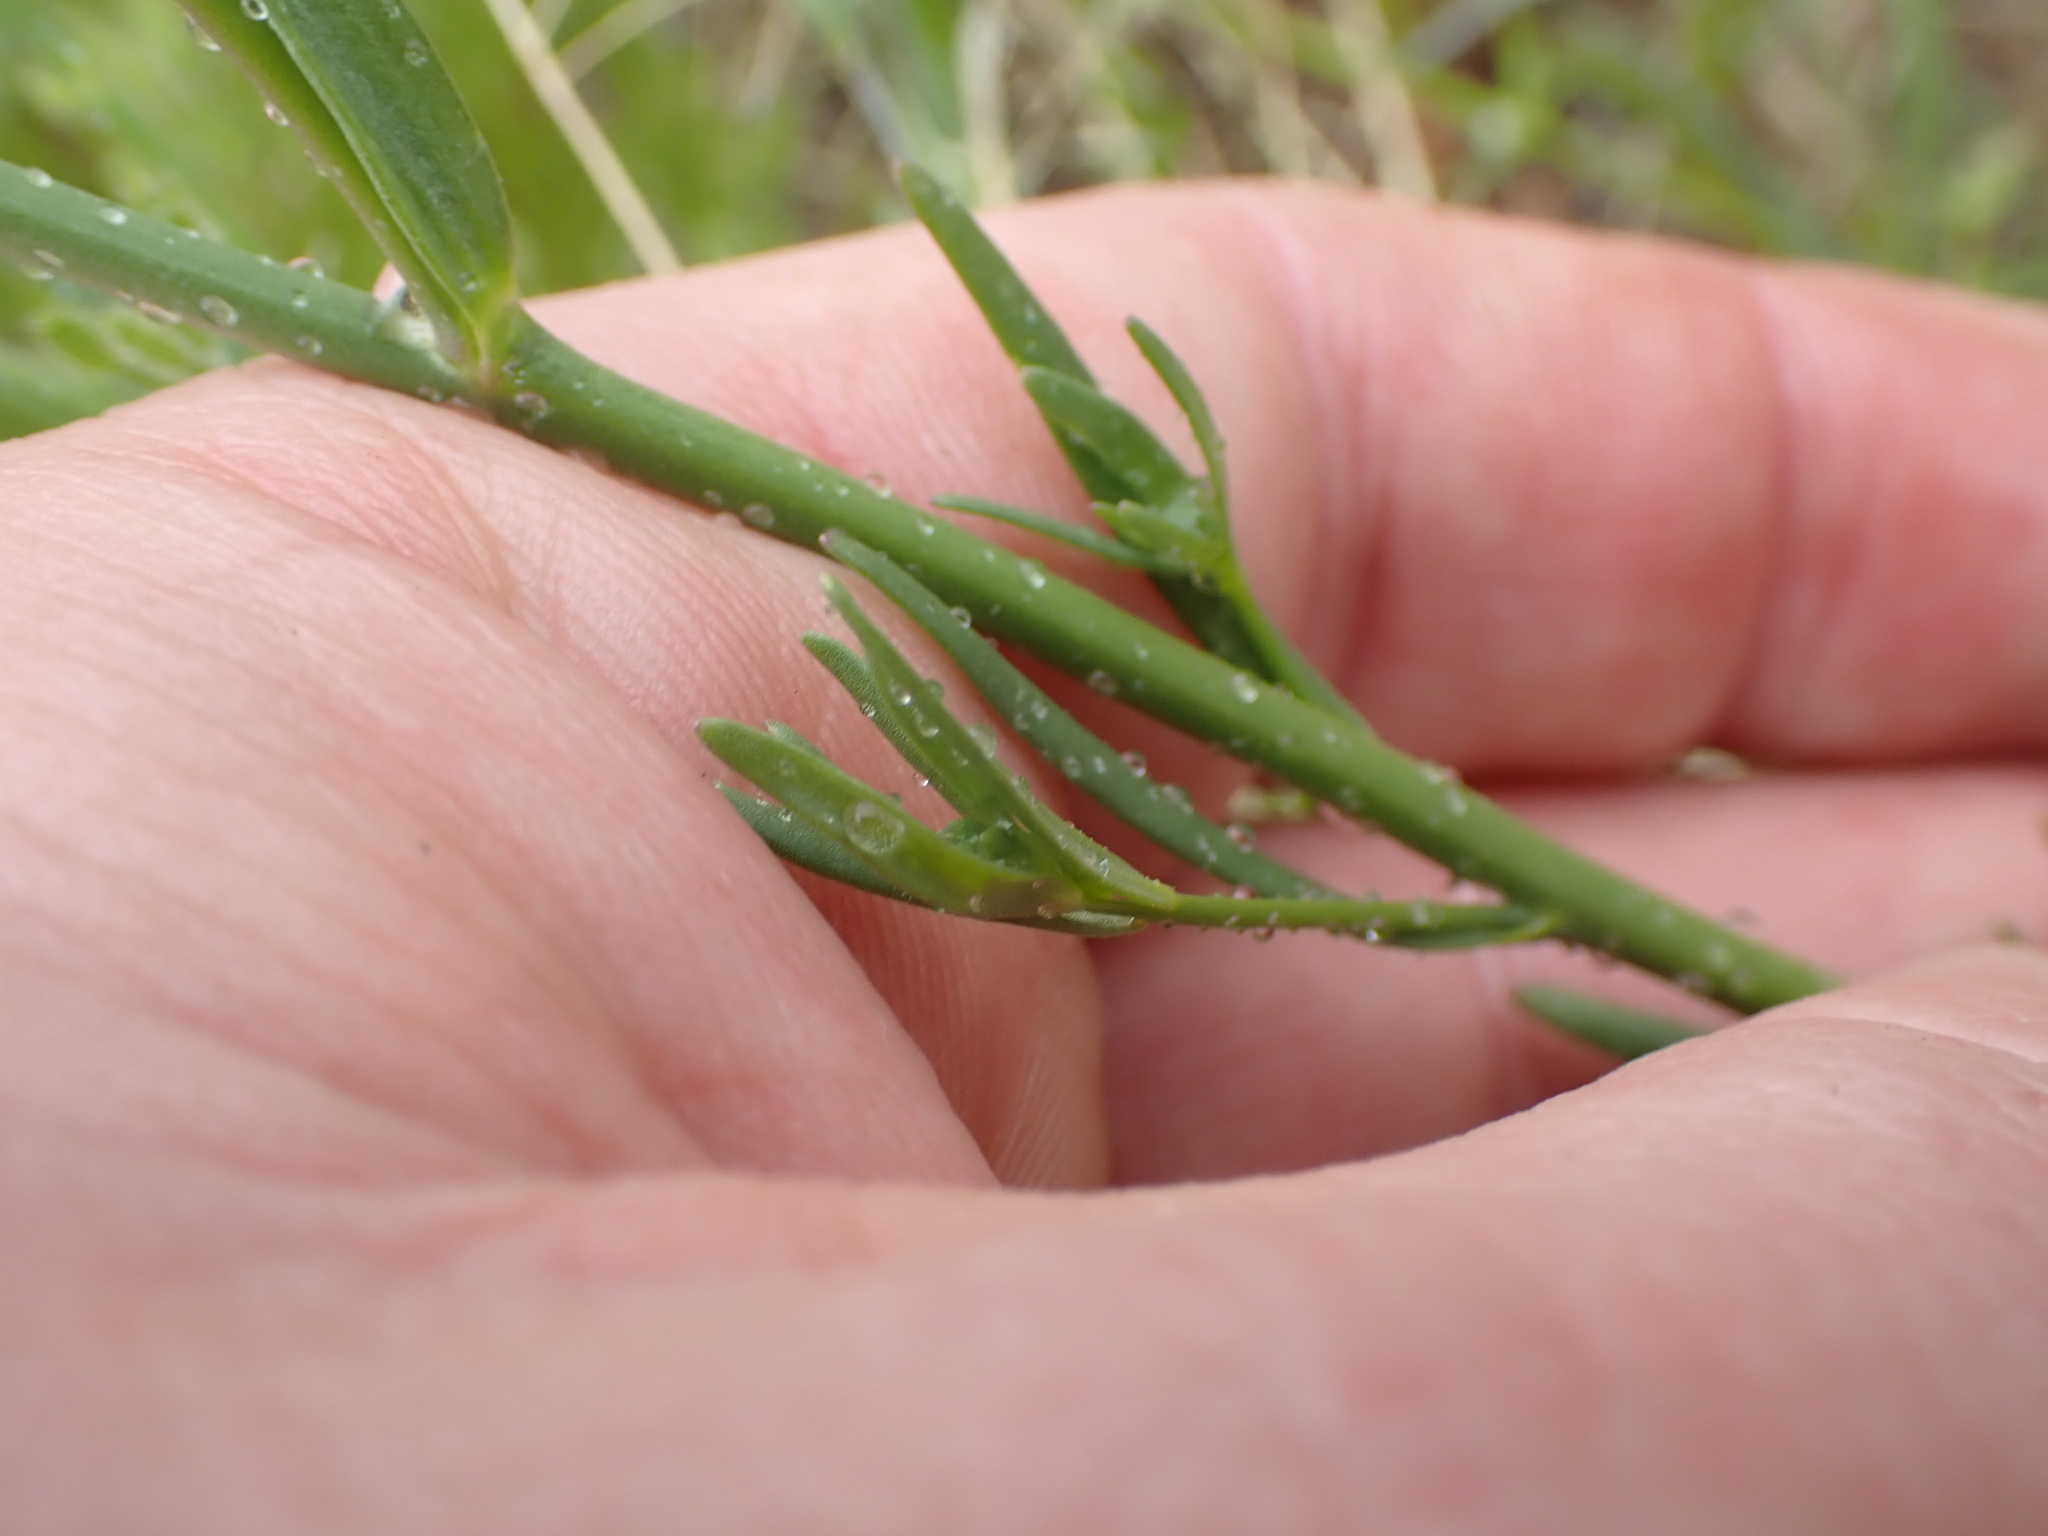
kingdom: Plantae
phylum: Tracheophyta
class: Magnoliopsida
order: Lamiales
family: Plantaginaceae
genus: Nuttallanthus
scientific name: Nuttallanthus texanus
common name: Texas toadflax
